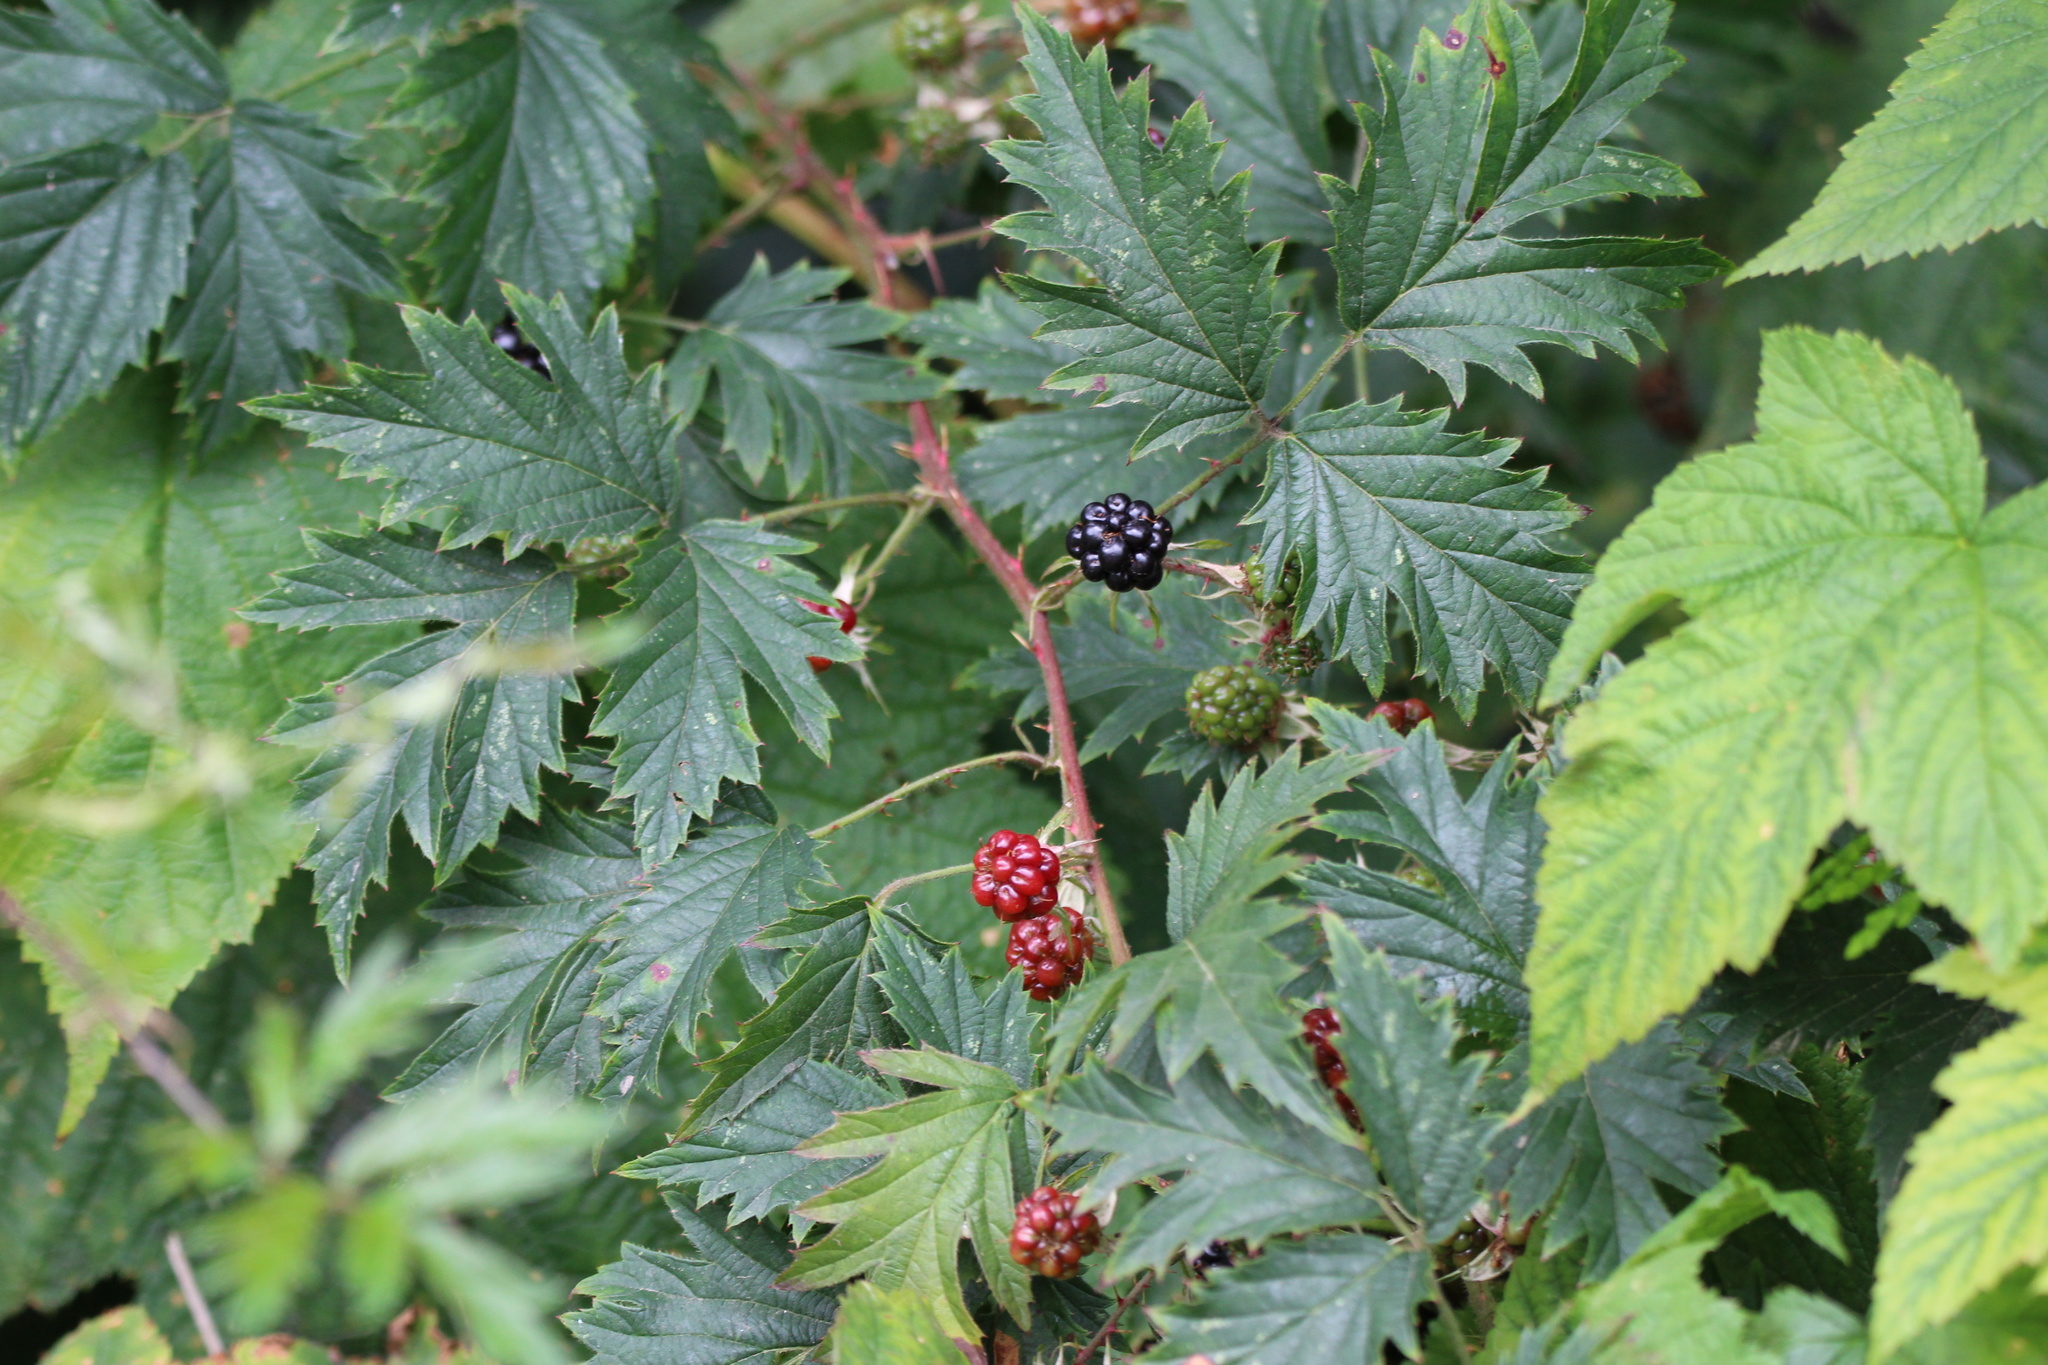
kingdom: Plantae
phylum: Tracheophyta
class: Magnoliopsida
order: Rosales
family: Rosaceae
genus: Rubus
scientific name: Rubus laciniatus
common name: Evergreen blackberry
